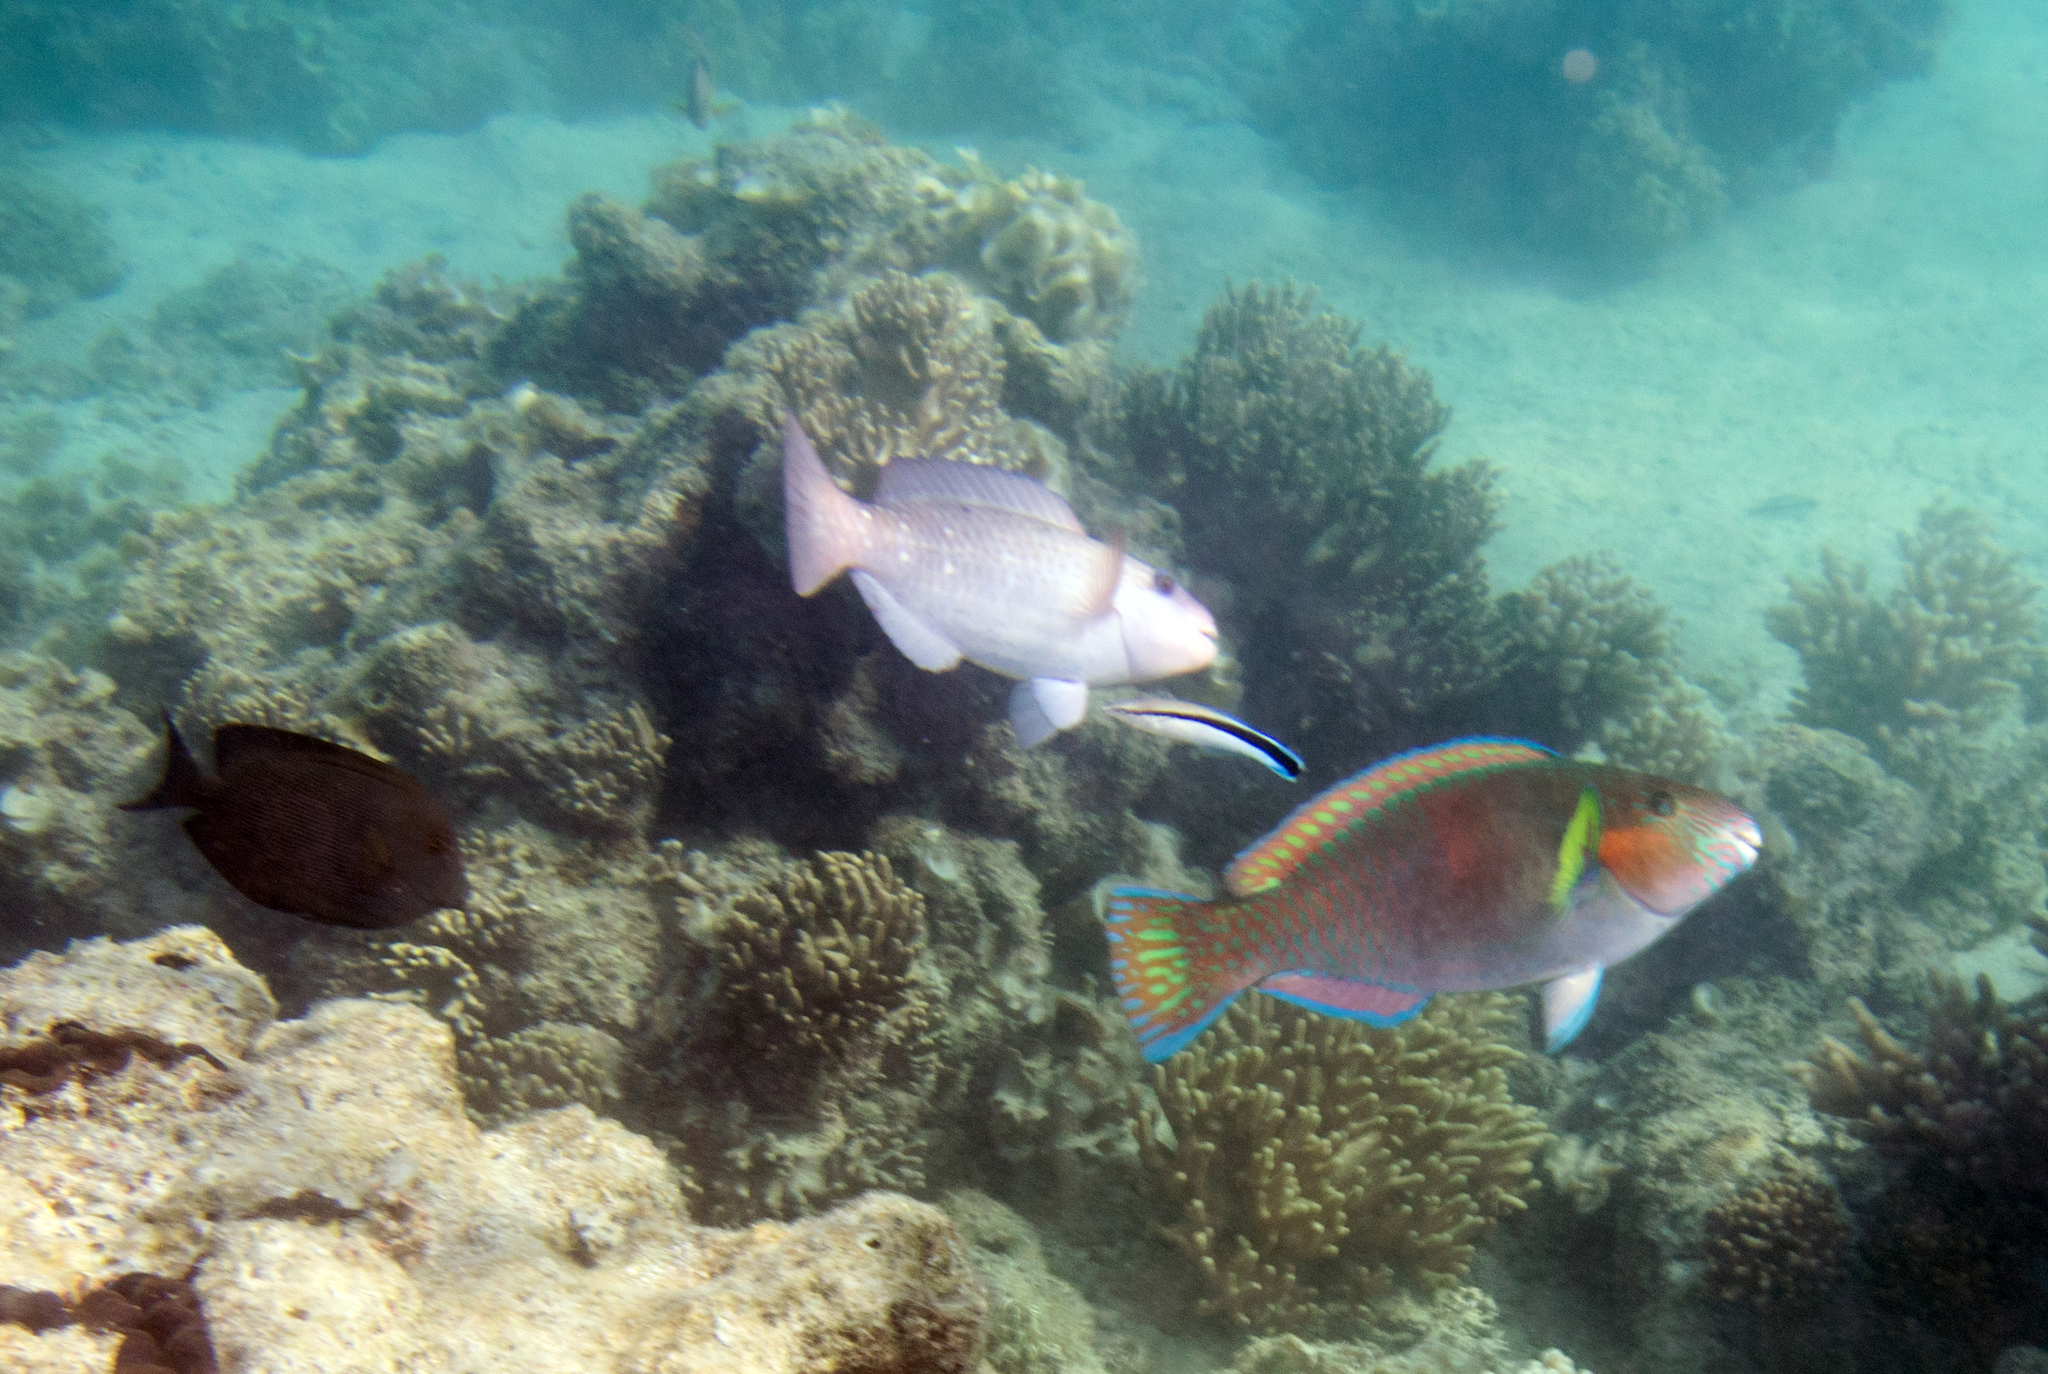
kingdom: Animalia
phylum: Chordata
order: Perciformes
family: Labridae
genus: Labroides
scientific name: Labroides dimidiatus
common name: Blue diesel wrasse
